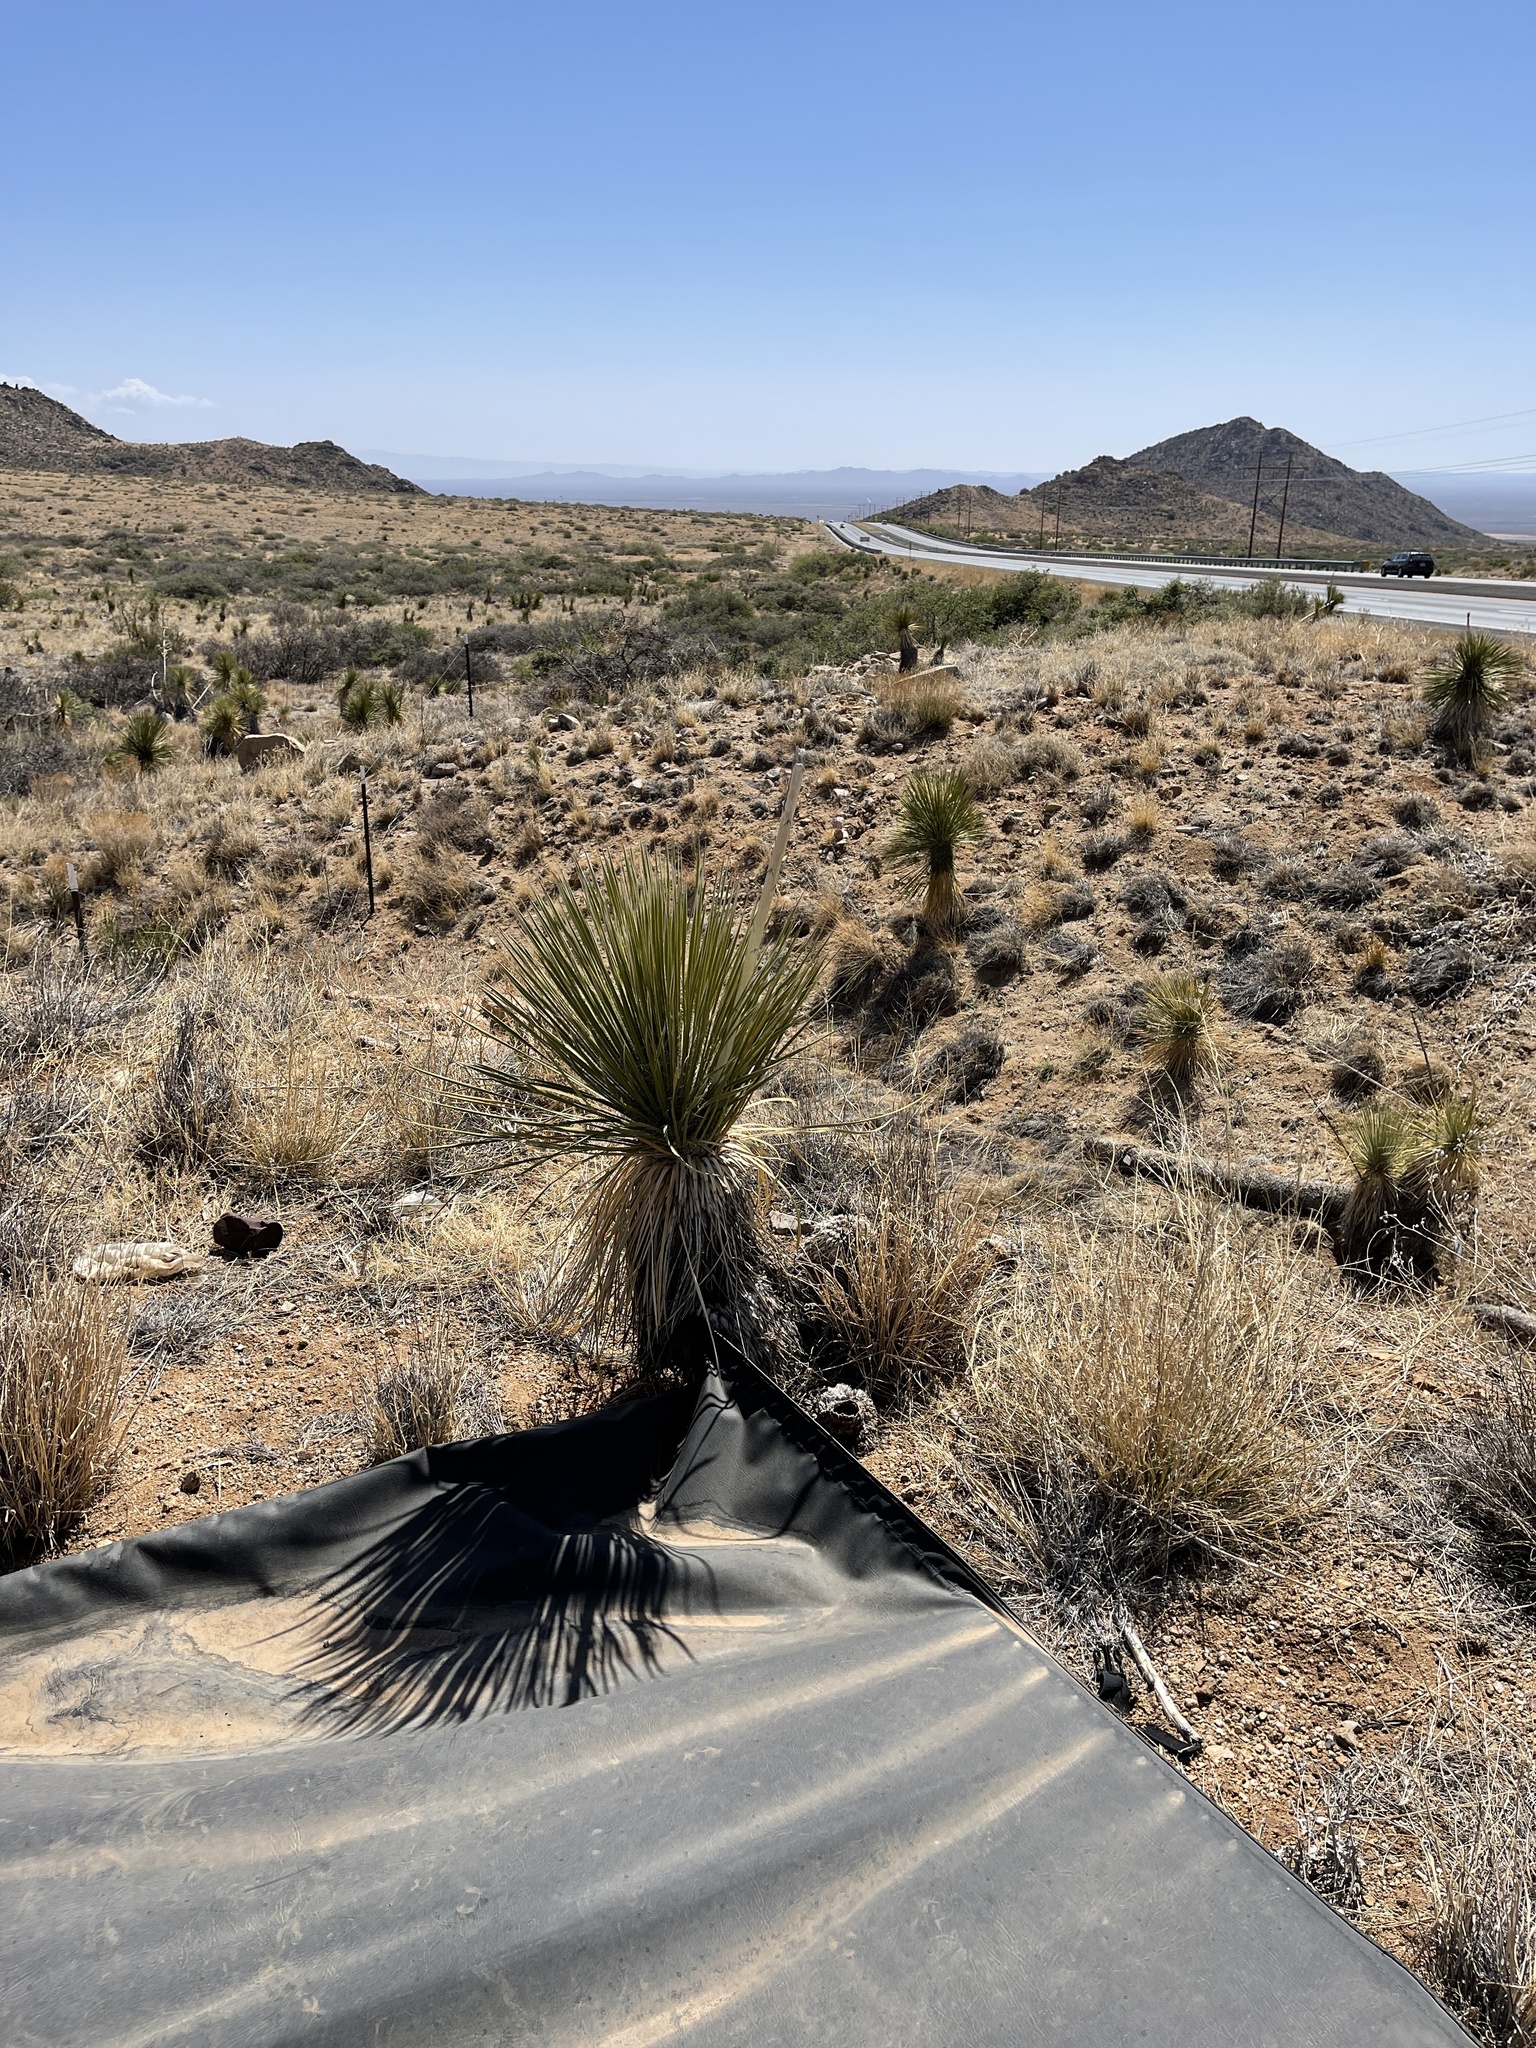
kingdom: Plantae
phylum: Tracheophyta
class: Liliopsida
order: Asparagales
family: Asparagaceae
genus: Yucca
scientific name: Yucca elata
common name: Palmella
